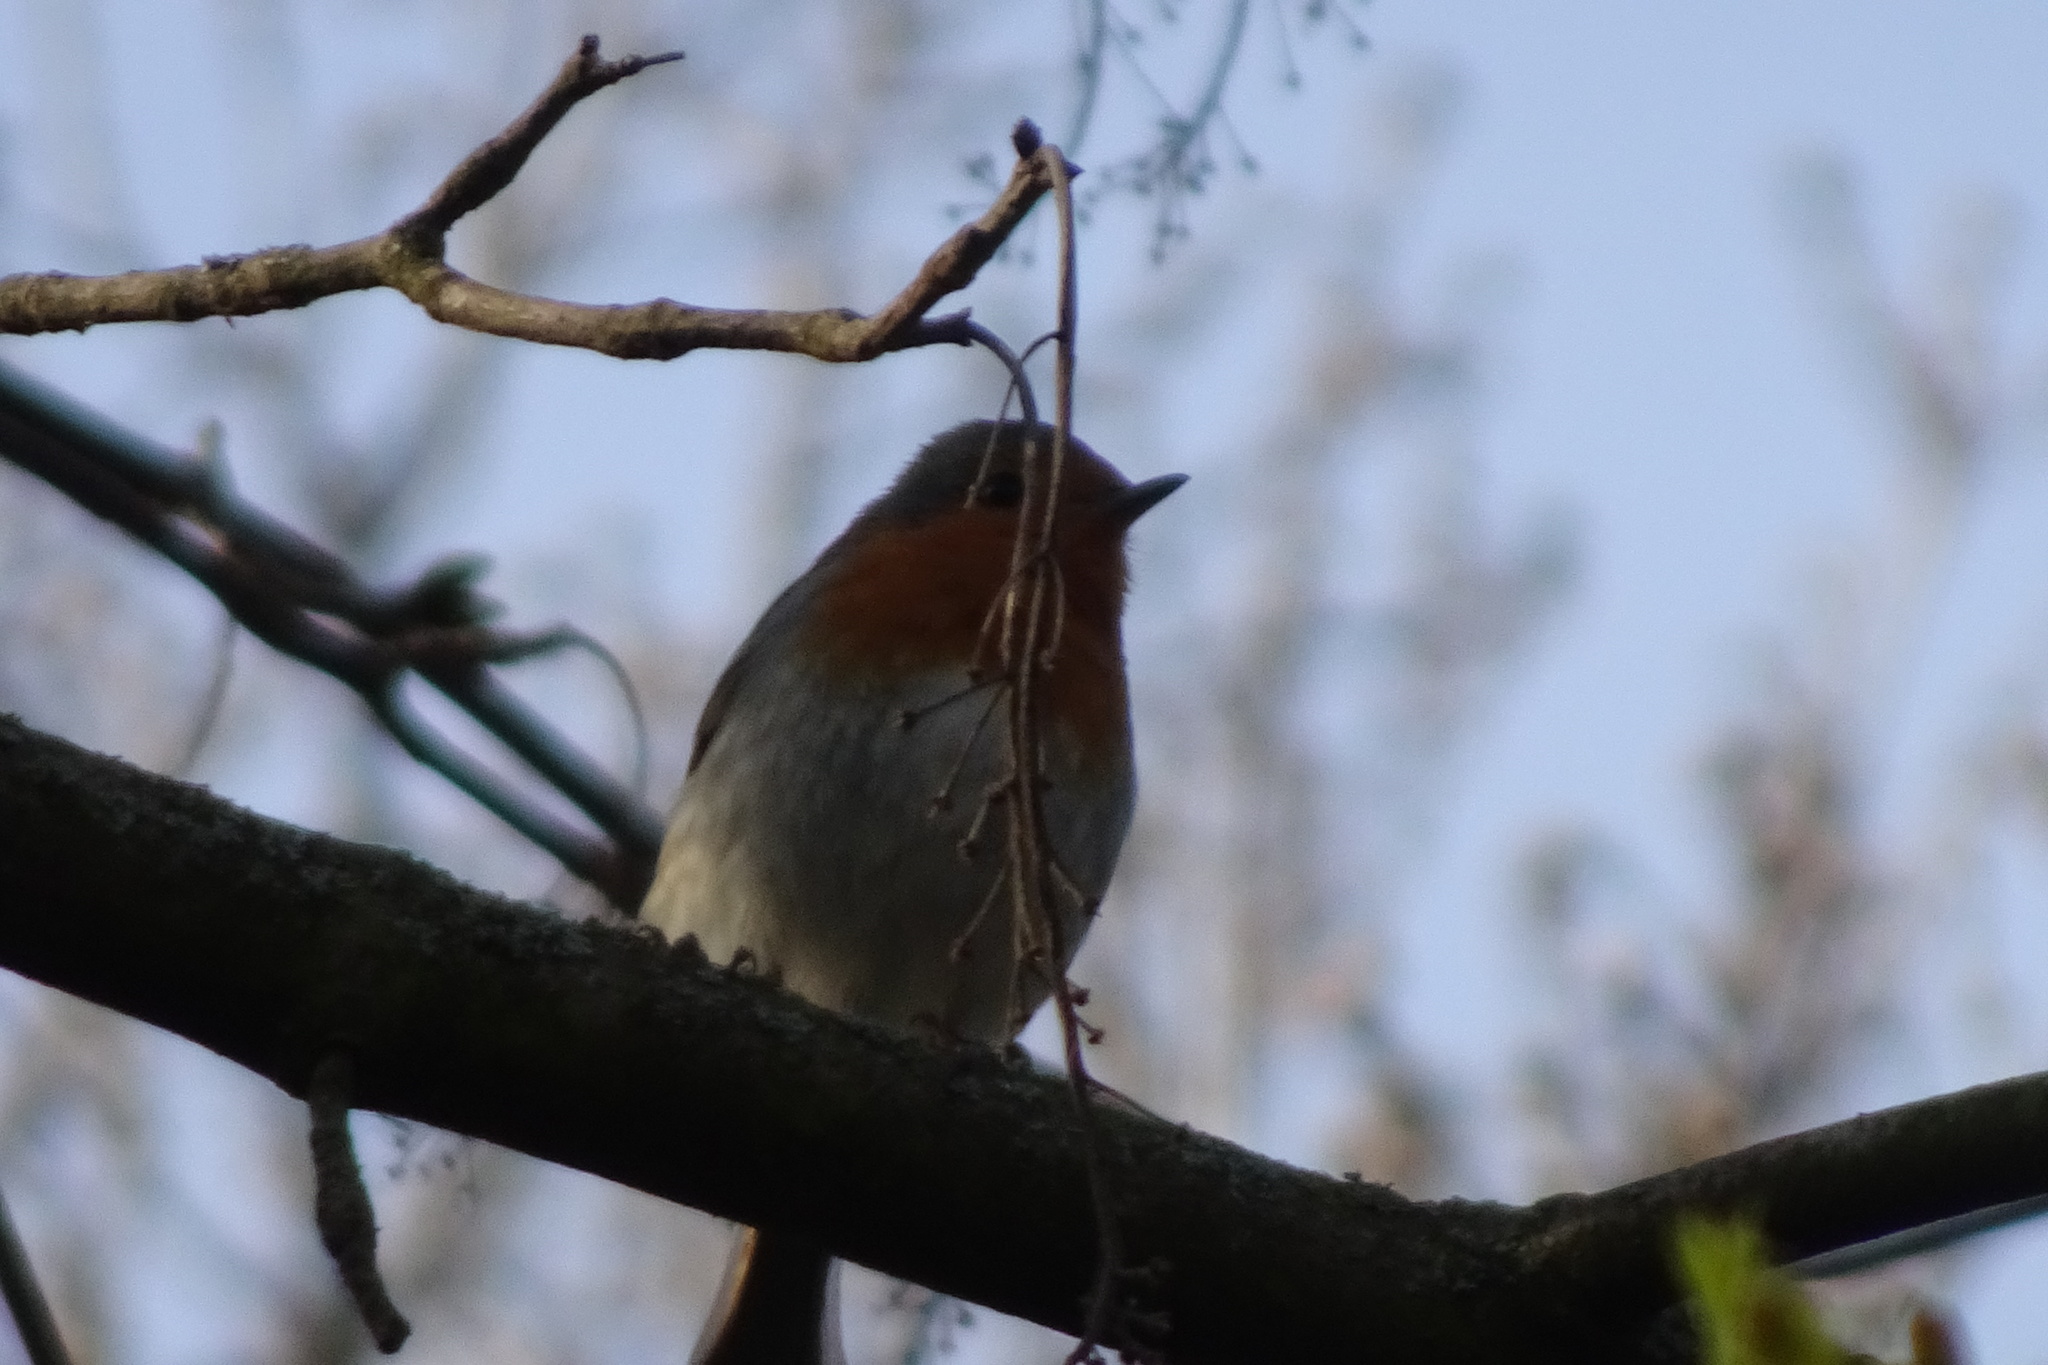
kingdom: Animalia
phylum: Chordata
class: Aves
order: Passeriformes
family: Muscicapidae
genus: Erithacus
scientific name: Erithacus rubecula
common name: European robin
